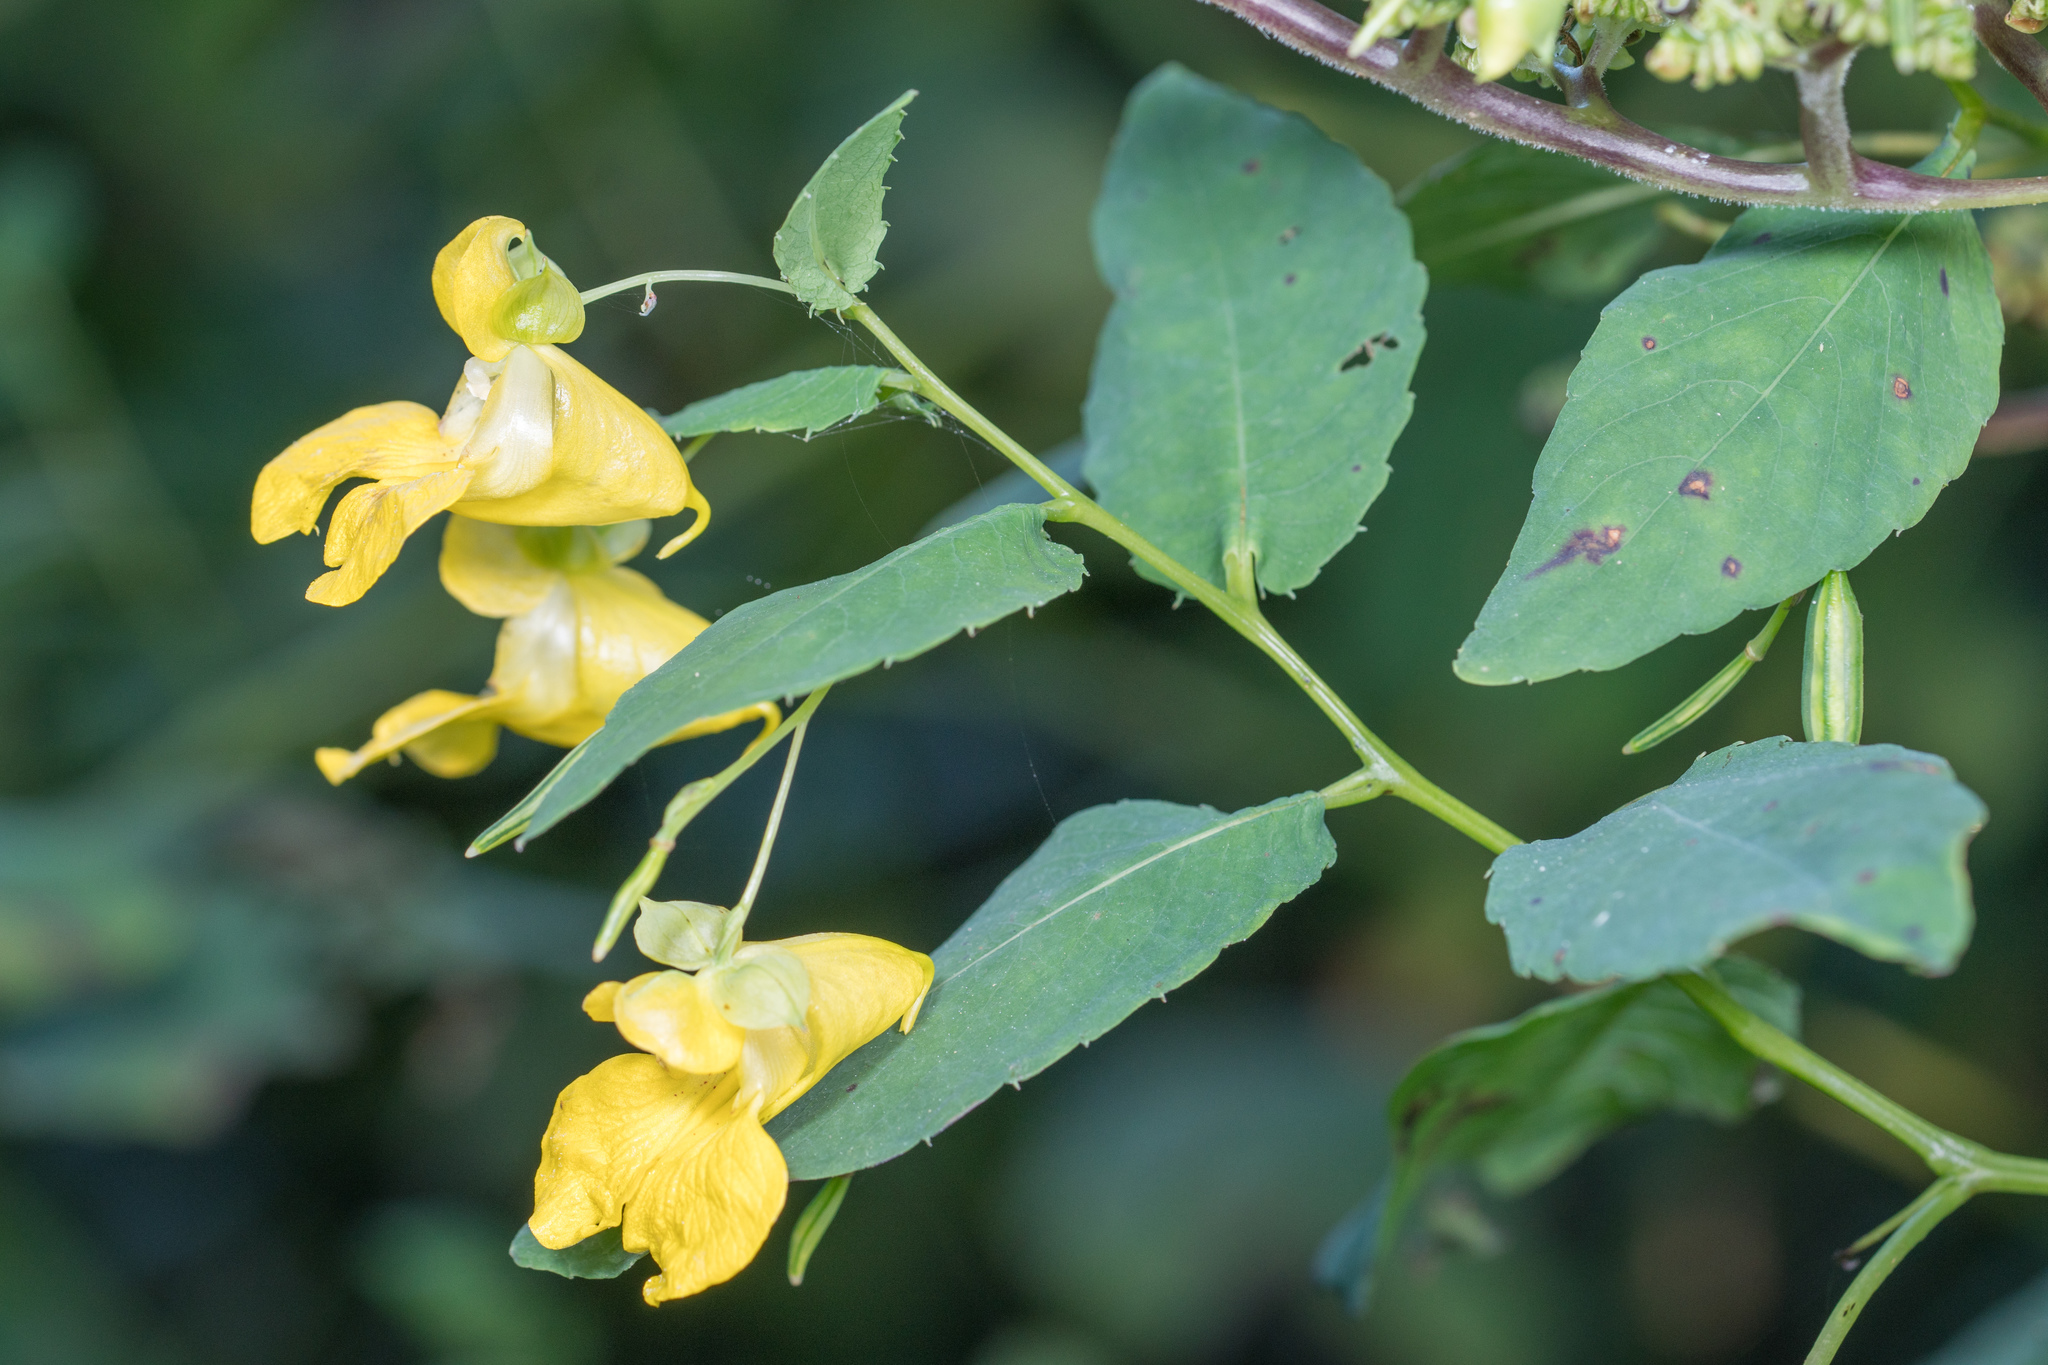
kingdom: Plantae
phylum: Tracheophyta
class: Magnoliopsida
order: Ericales
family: Balsaminaceae
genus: Impatiens
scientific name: Impatiens pallida
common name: Pale snapweed
